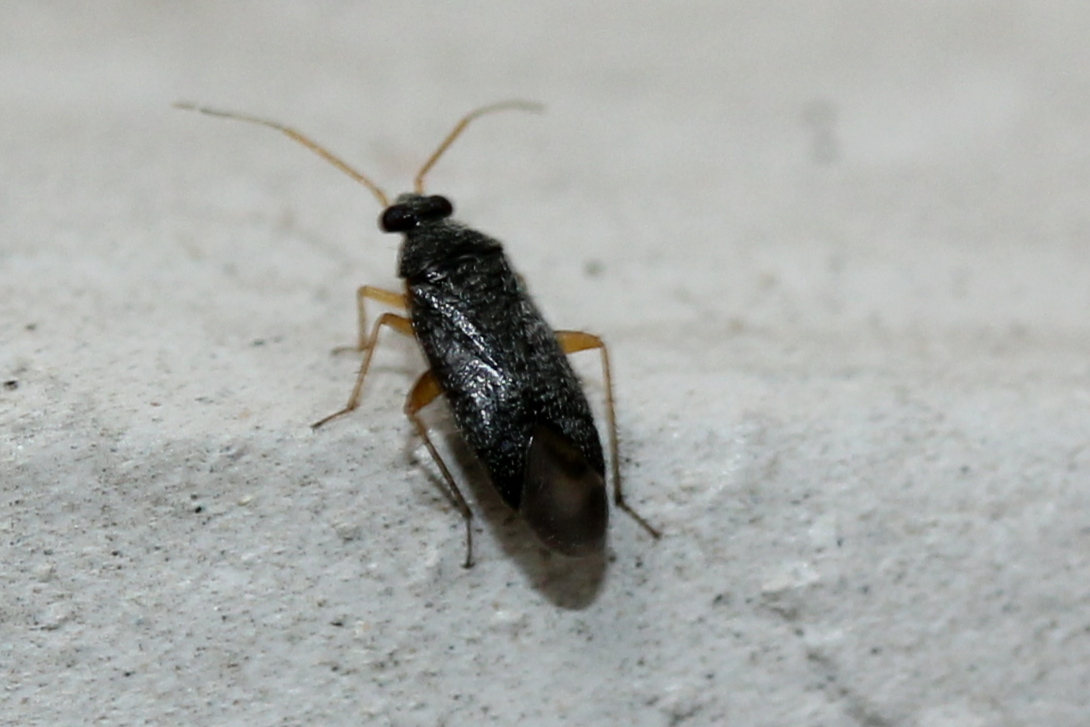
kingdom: Animalia
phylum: Arthropoda
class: Insecta
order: Hemiptera
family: Miridae
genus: Phoenicocoris
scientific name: Phoenicocoris strobicola
